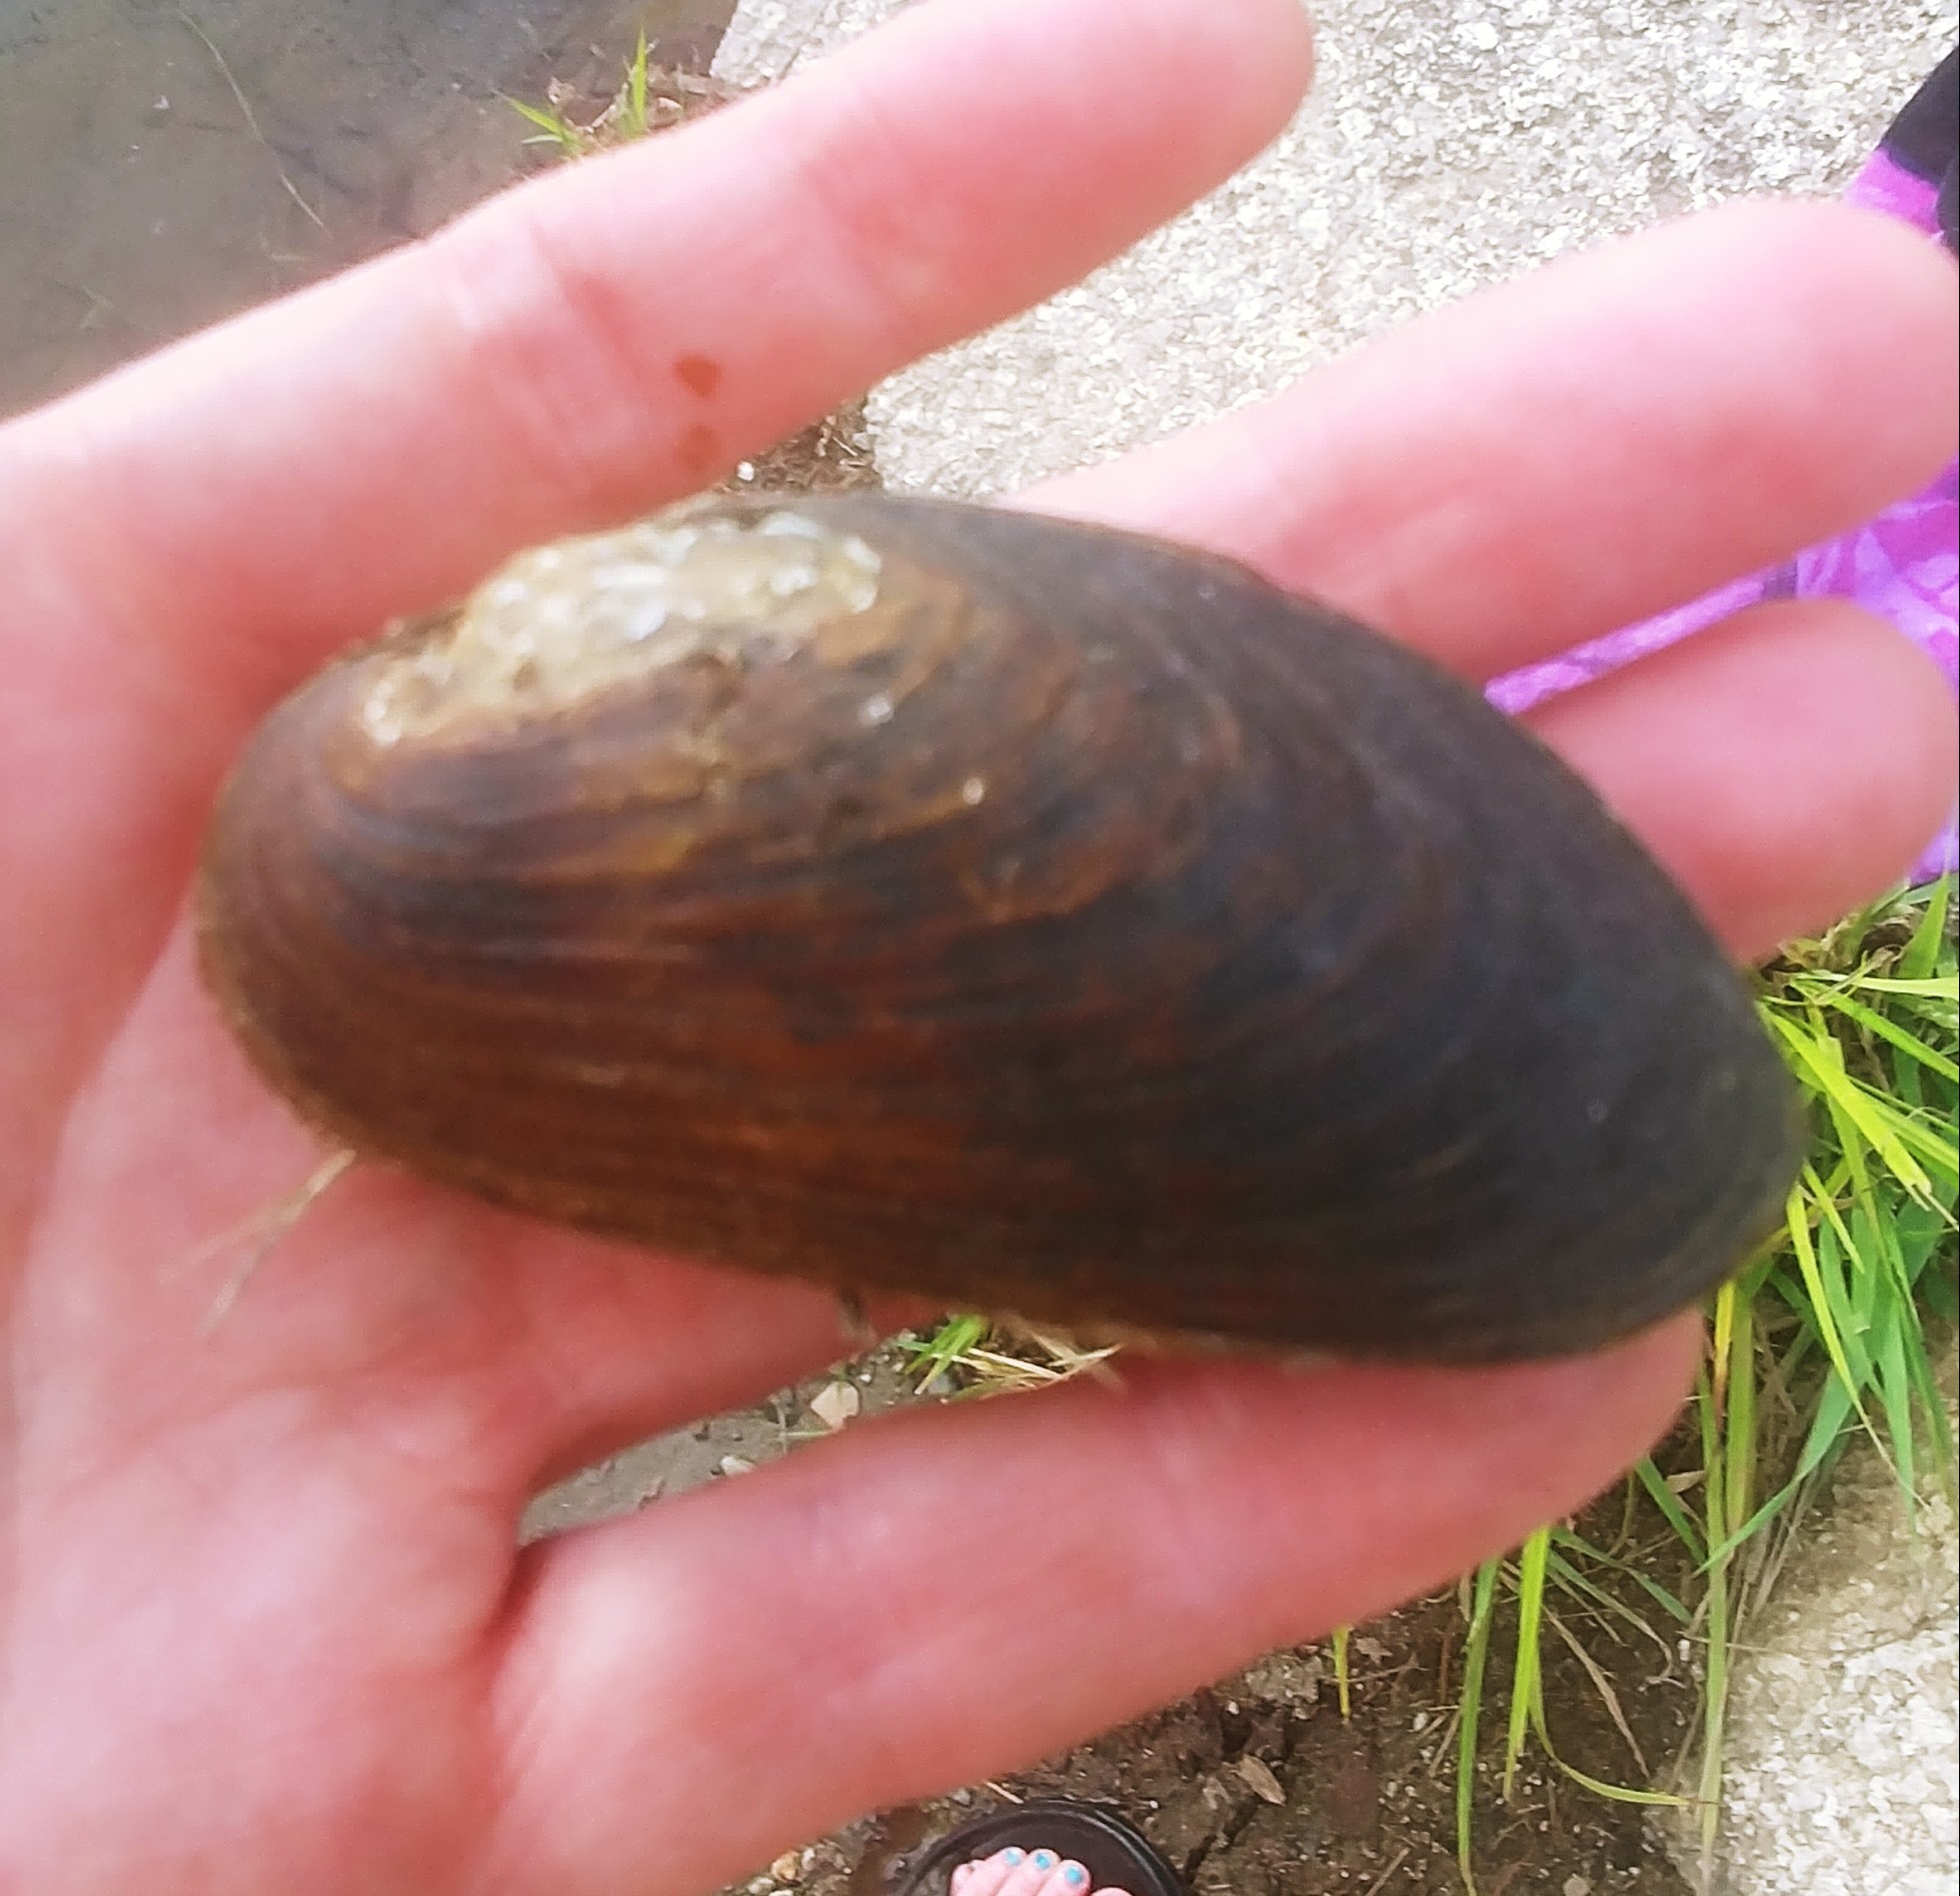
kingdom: Animalia
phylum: Mollusca
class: Bivalvia
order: Unionida
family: Margaritiferidae
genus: Margaritifera
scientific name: Margaritifera margaritifera
